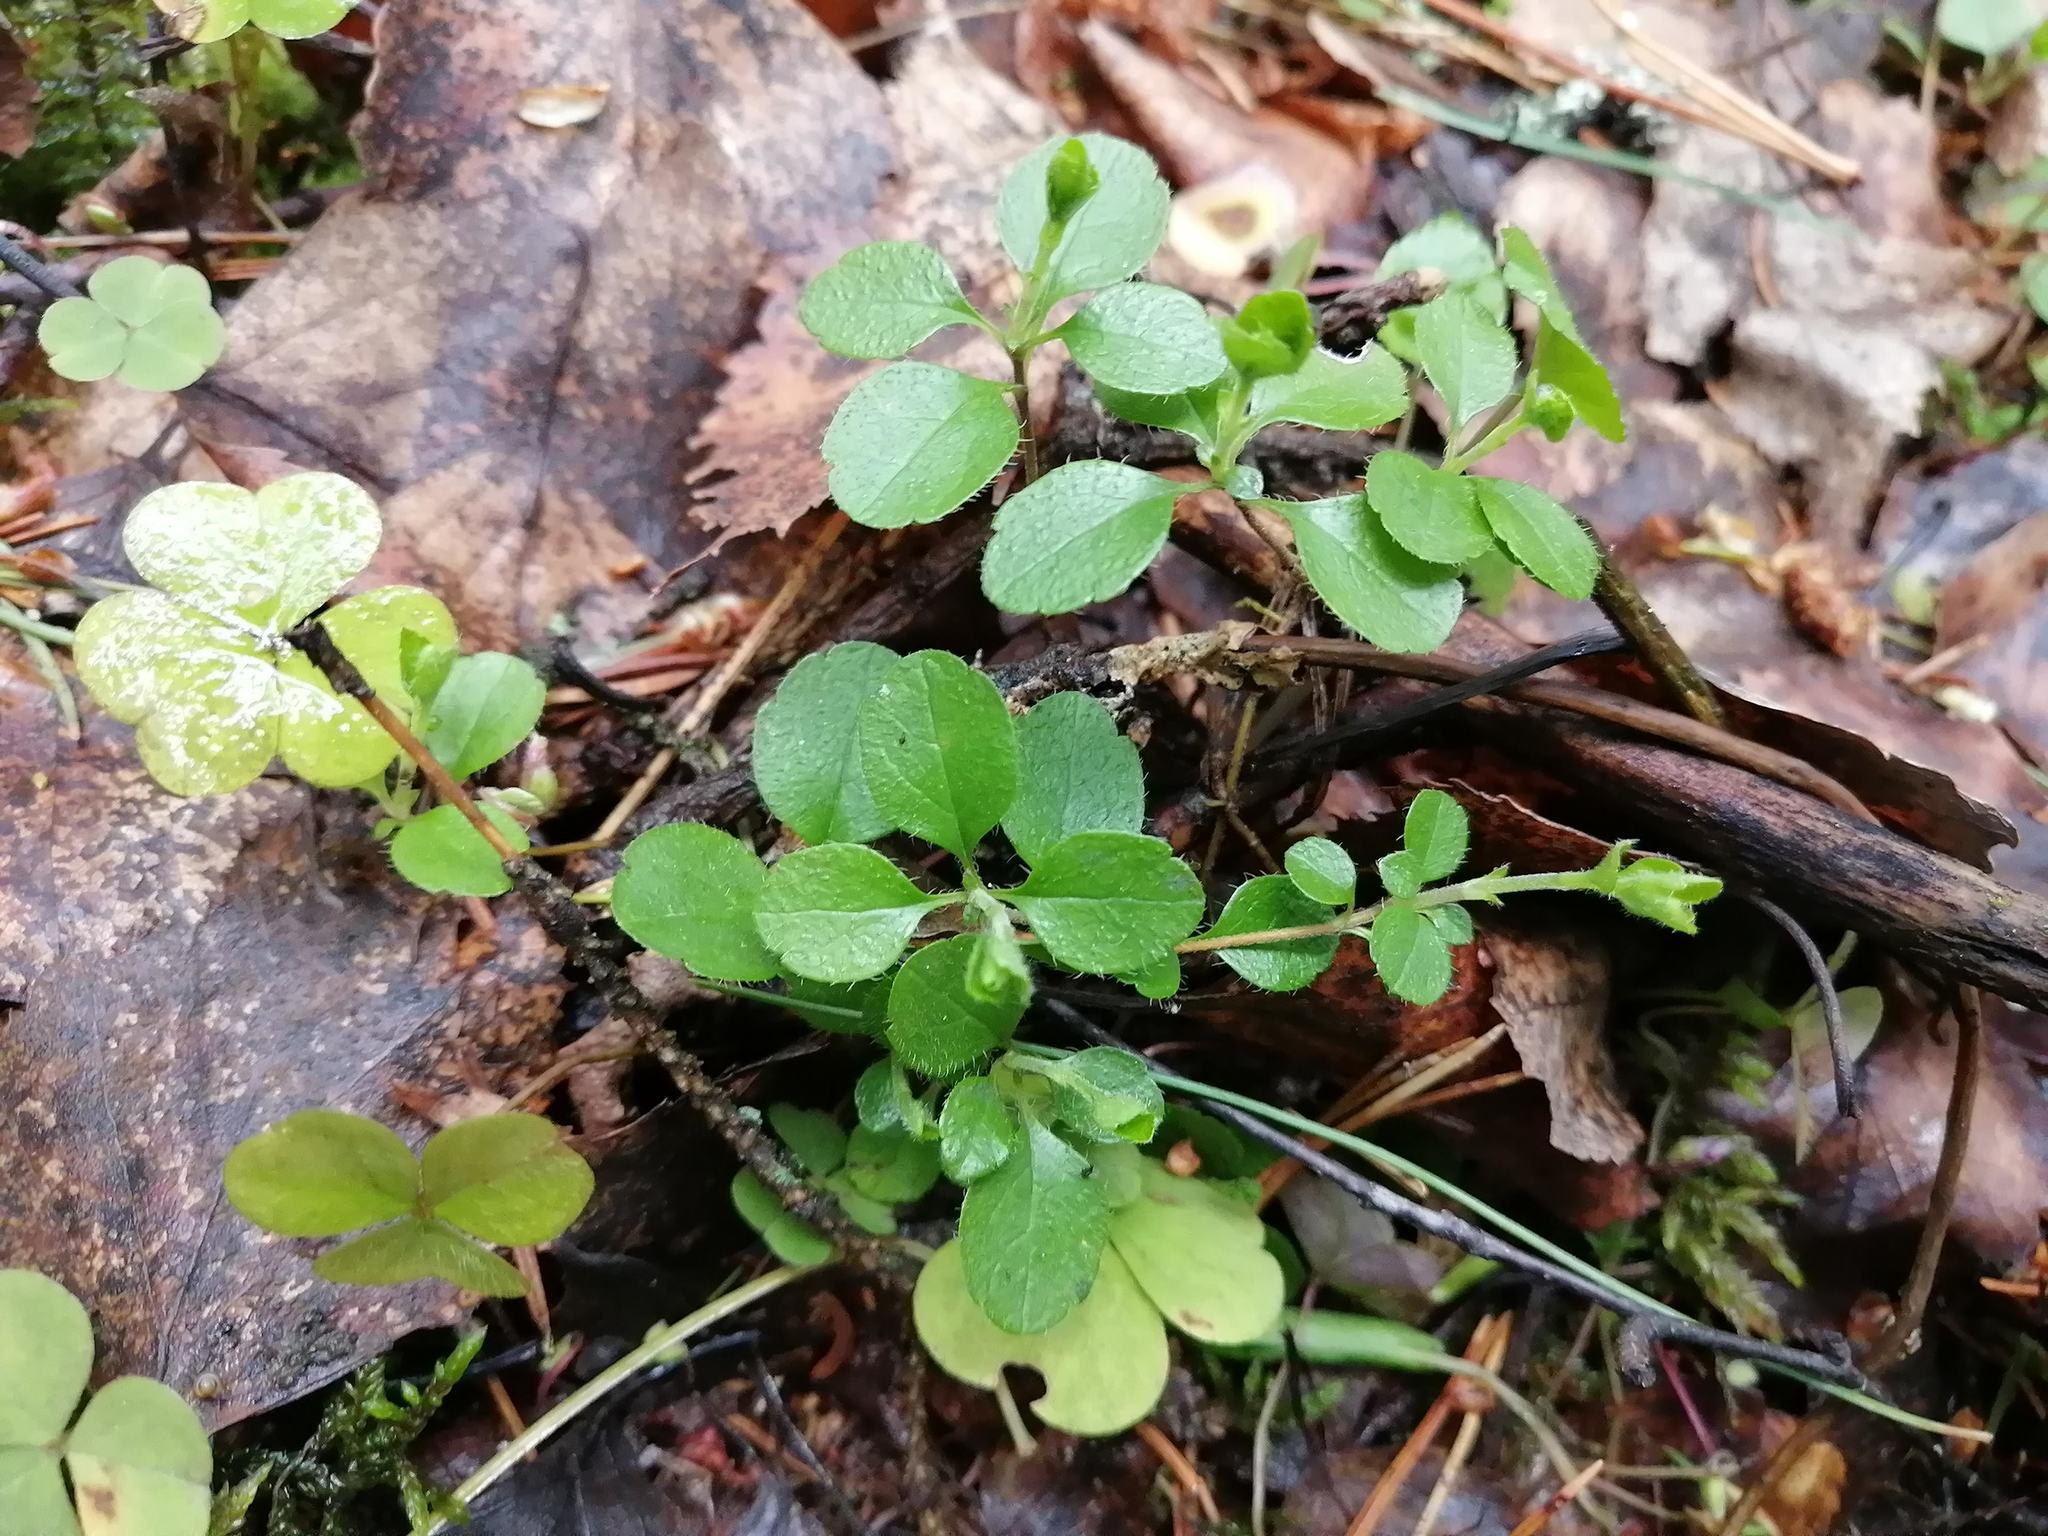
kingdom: Plantae
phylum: Tracheophyta
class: Magnoliopsida
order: Dipsacales
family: Caprifoliaceae
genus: Linnaea
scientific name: Linnaea borealis
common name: Twinflower
